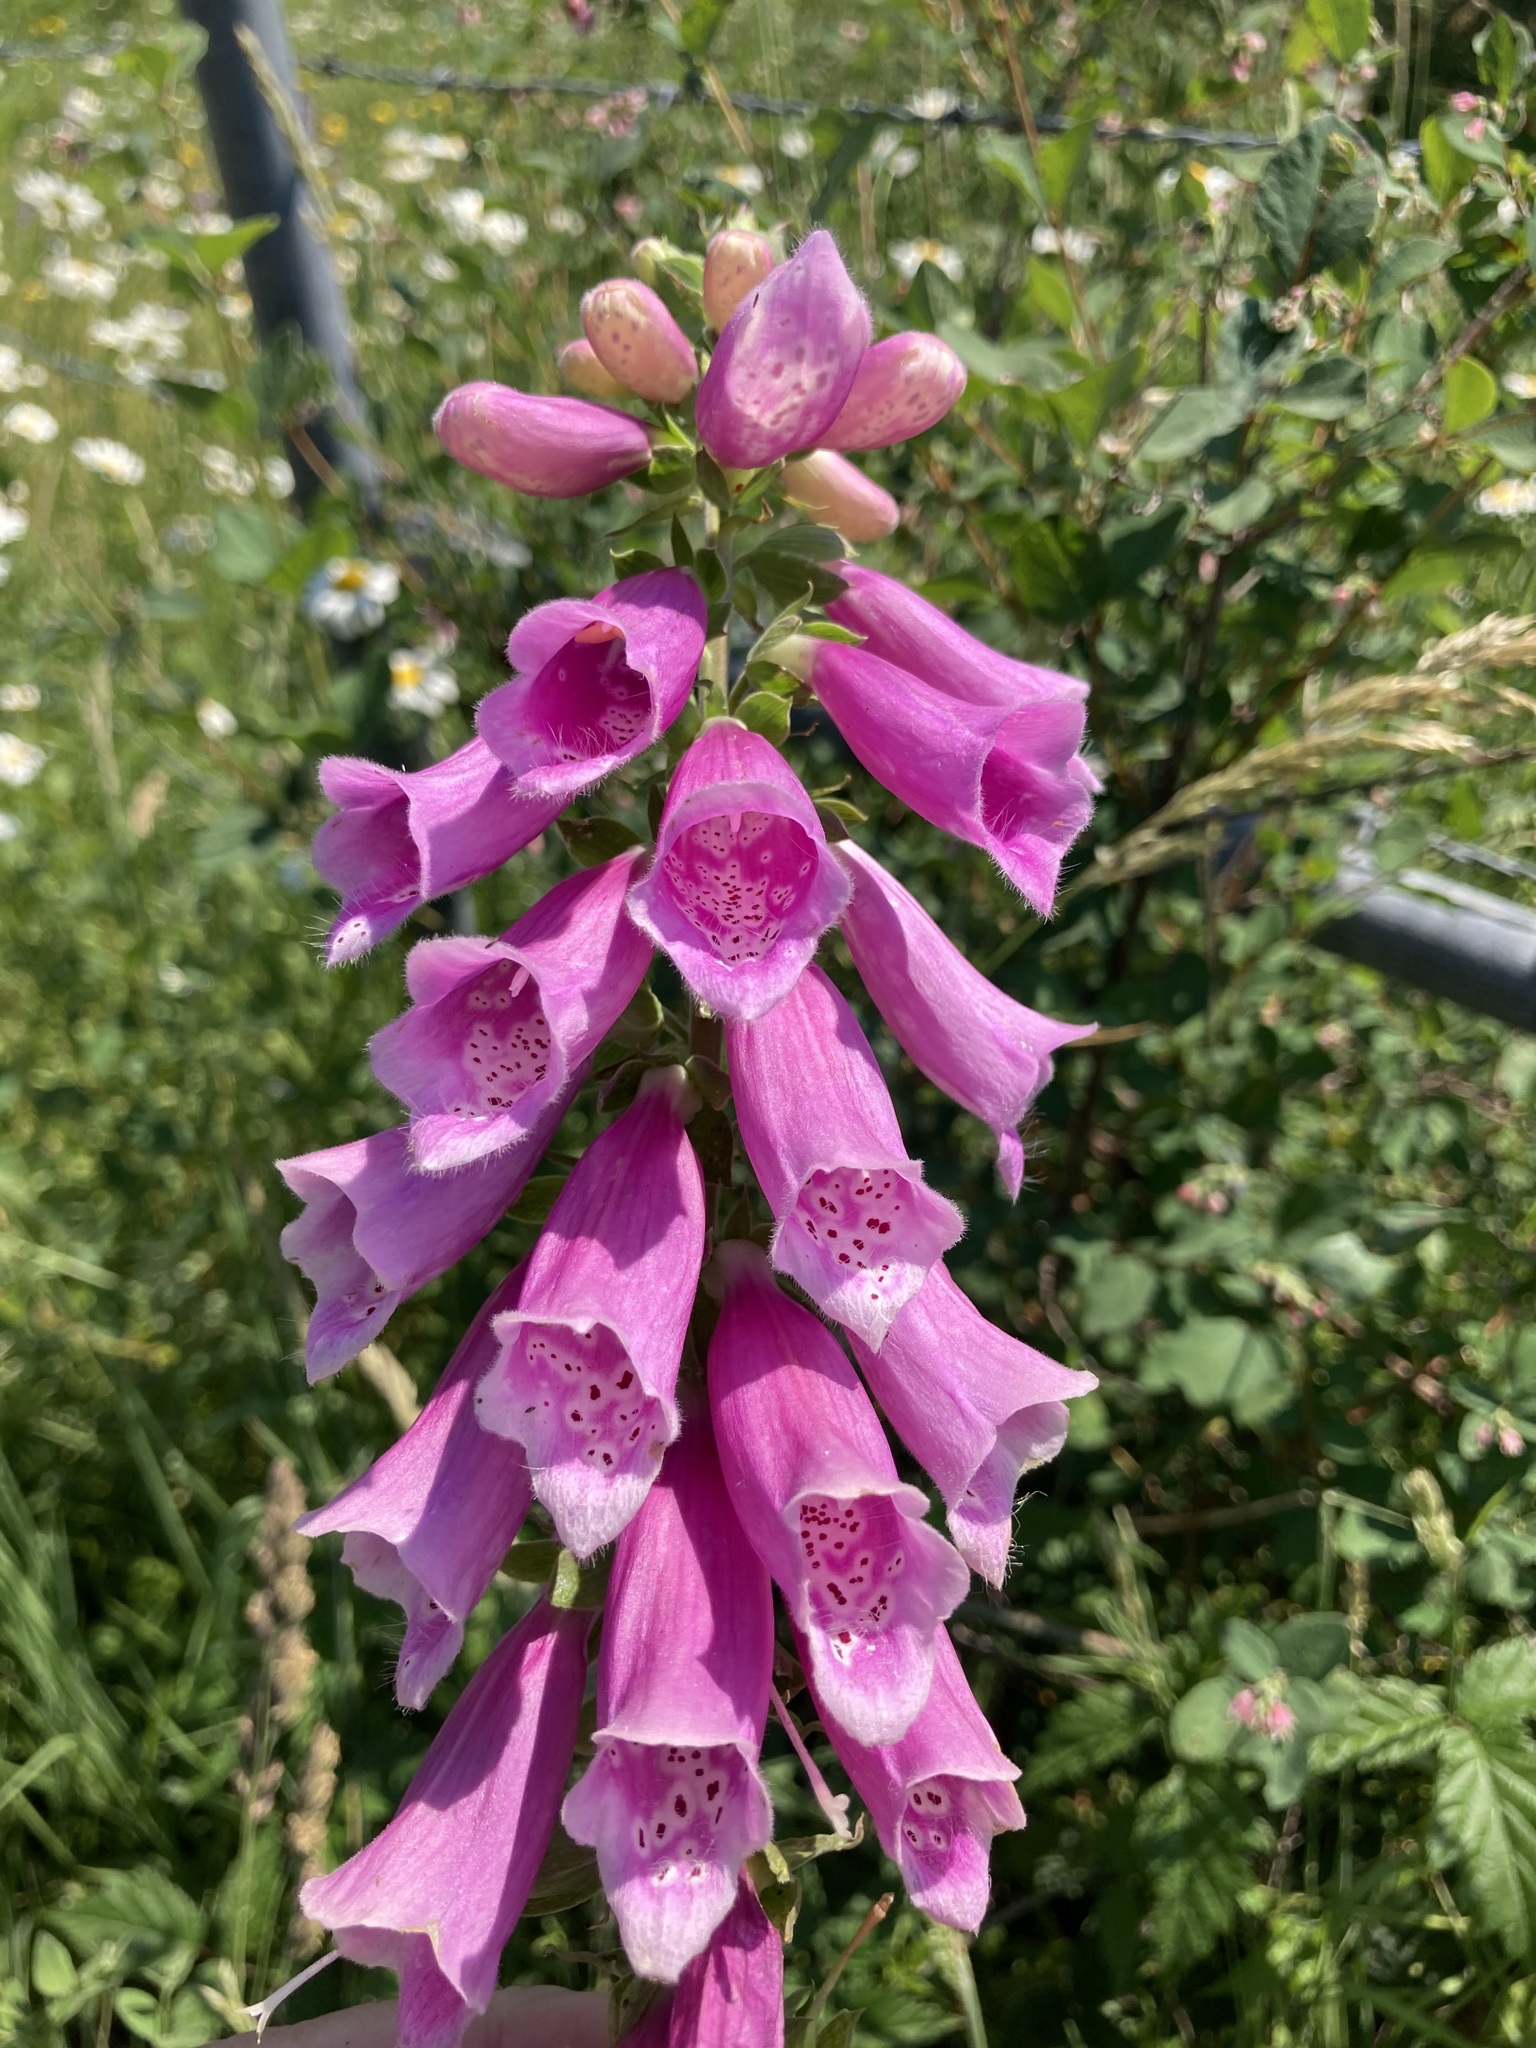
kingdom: Plantae
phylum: Tracheophyta
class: Magnoliopsida
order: Lamiales
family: Plantaginaceae
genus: Digitalis
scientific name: Digitalis purpurea
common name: Foxglove
